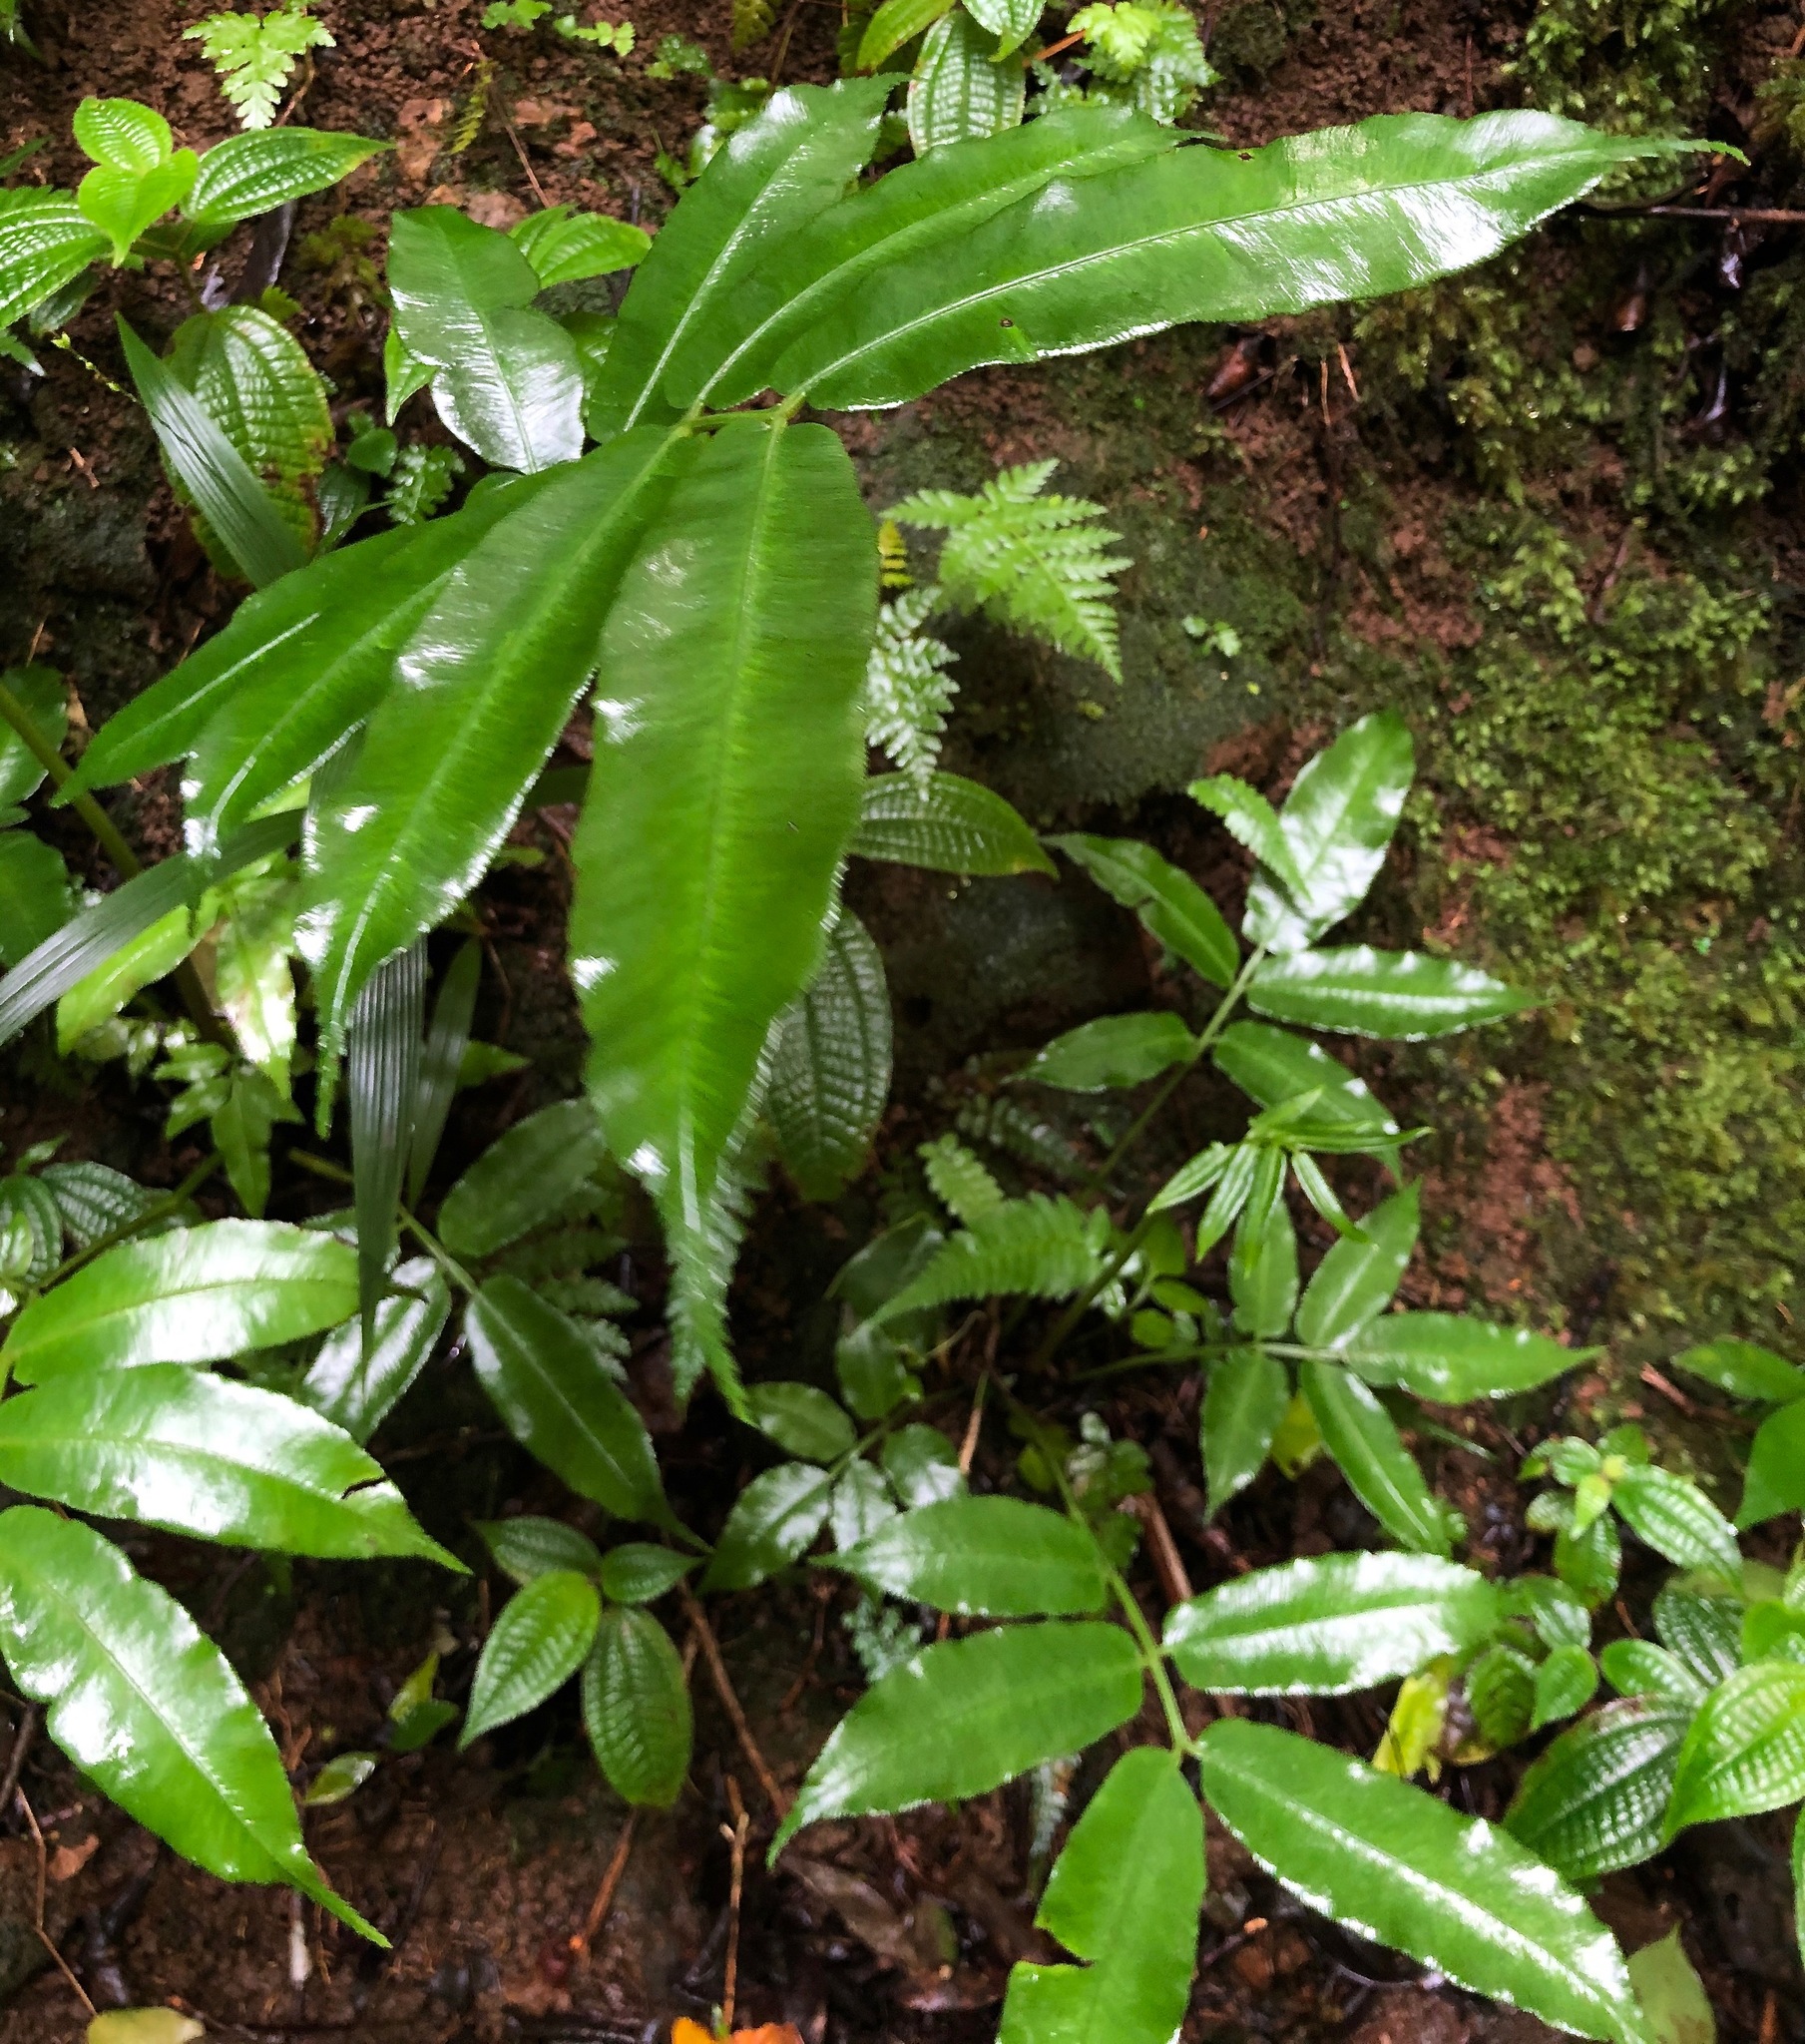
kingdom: Plantae
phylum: Tracheophyta
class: Polypodiopsida
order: Marattiales
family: Marattiaceae
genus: Angiopteris
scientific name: Angiopteris evecta
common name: Mule's-foot fern
